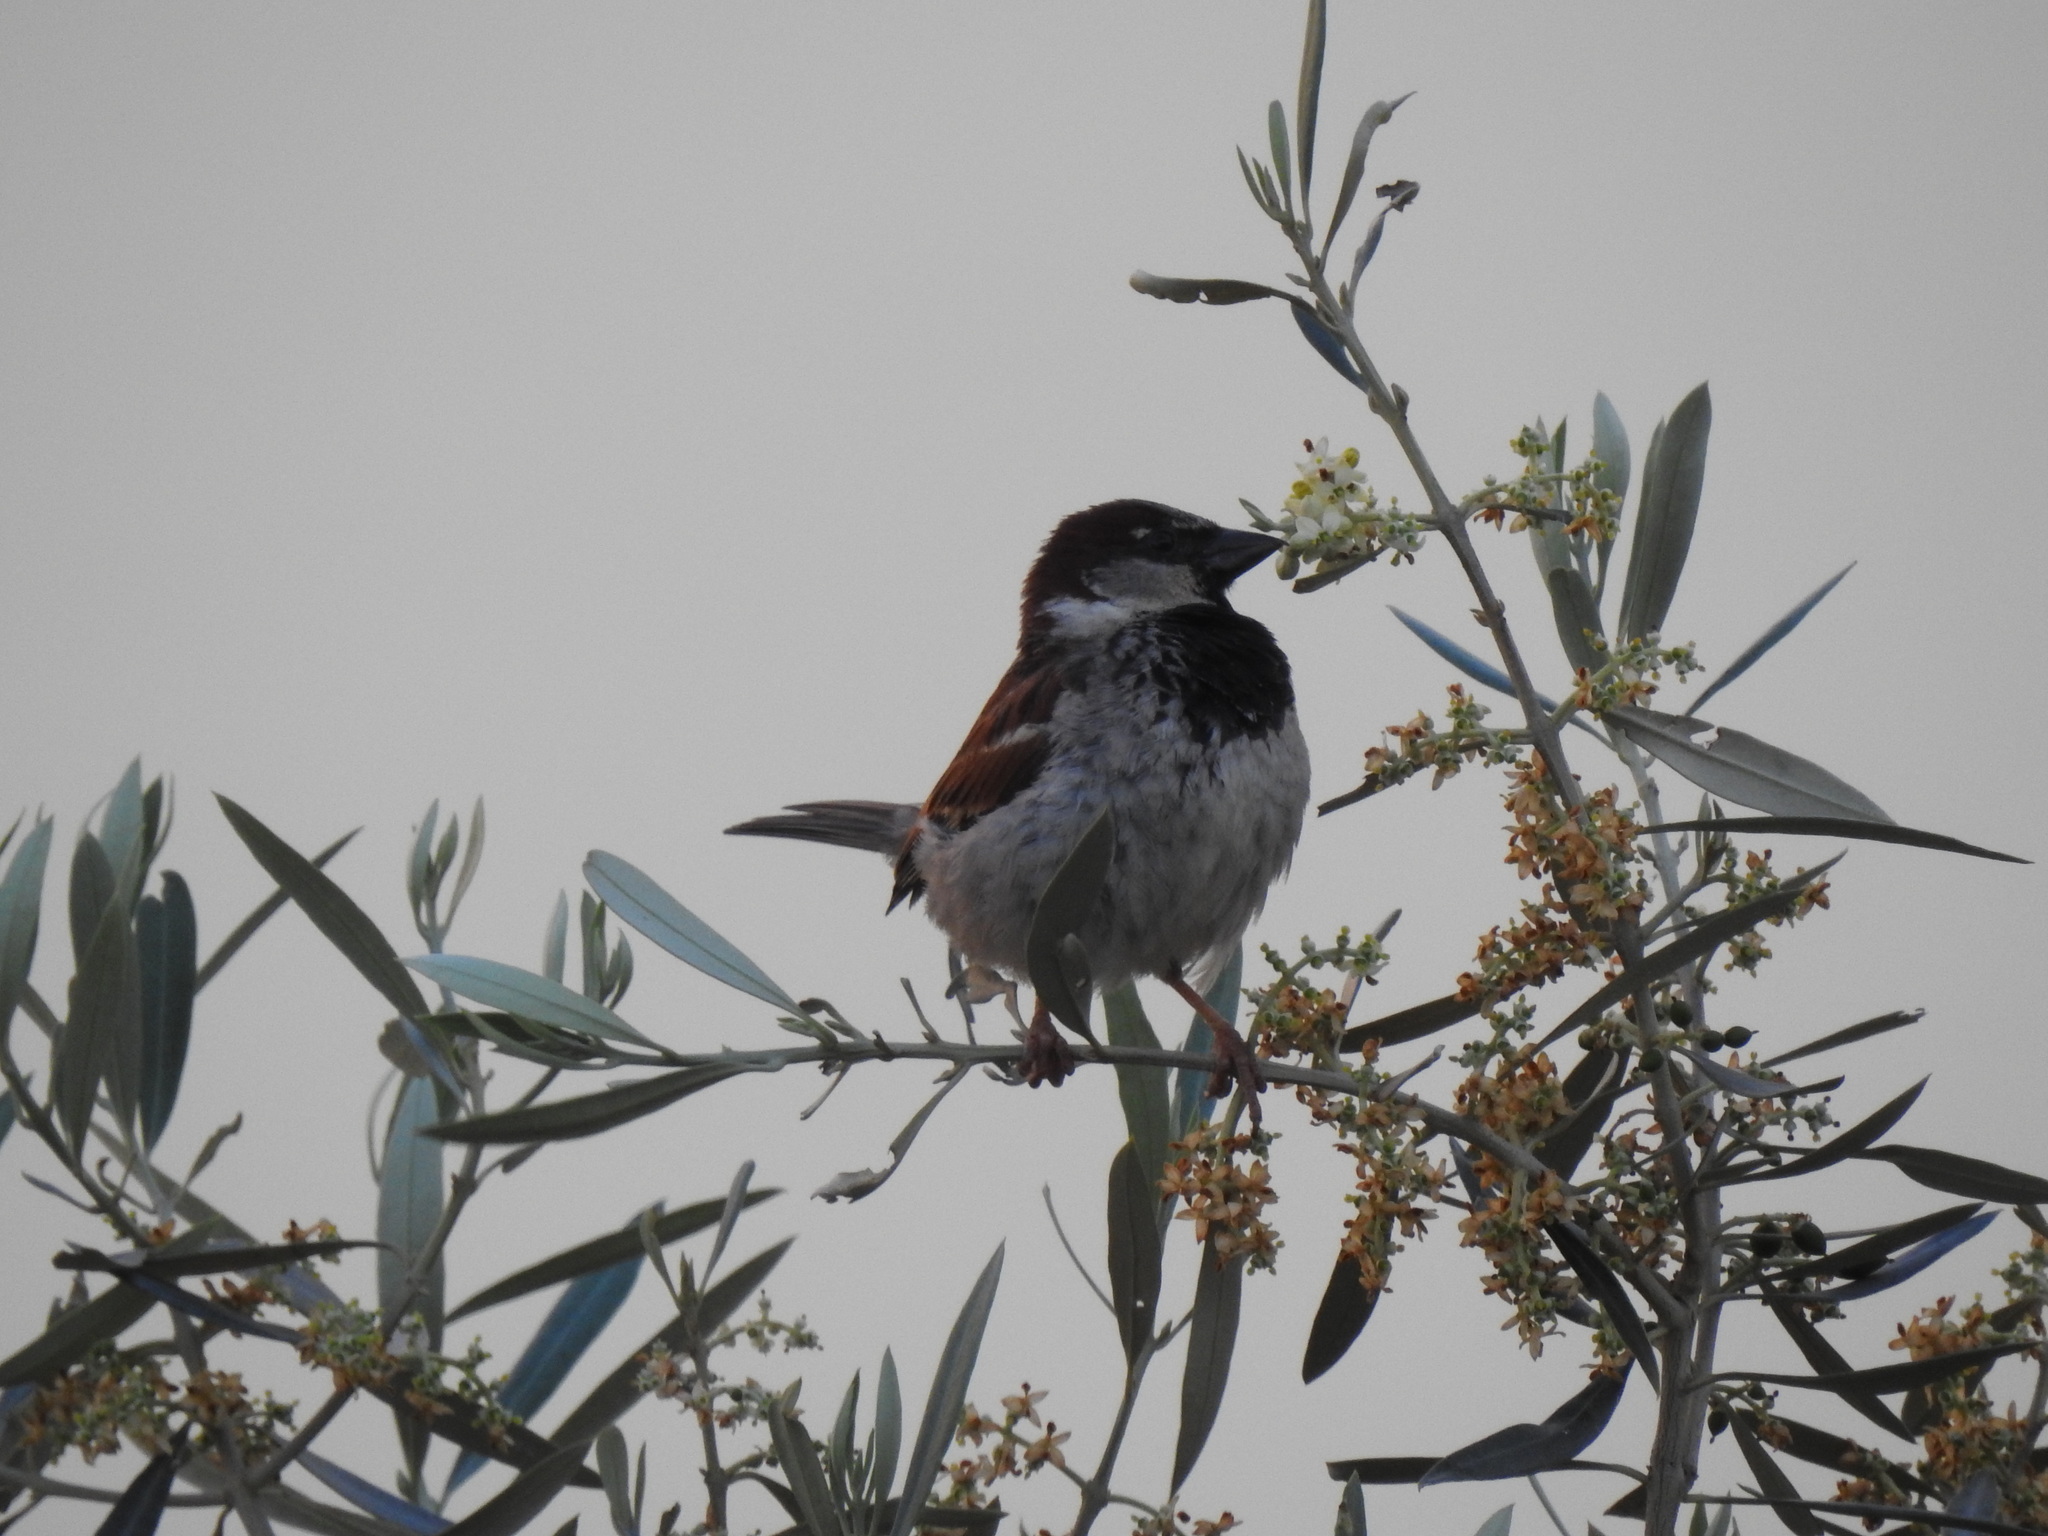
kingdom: Animalia
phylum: Chordata
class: Aves
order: Passeriformes
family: Passeridae
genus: Passer
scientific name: Passer domesticus
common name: House sparrow
